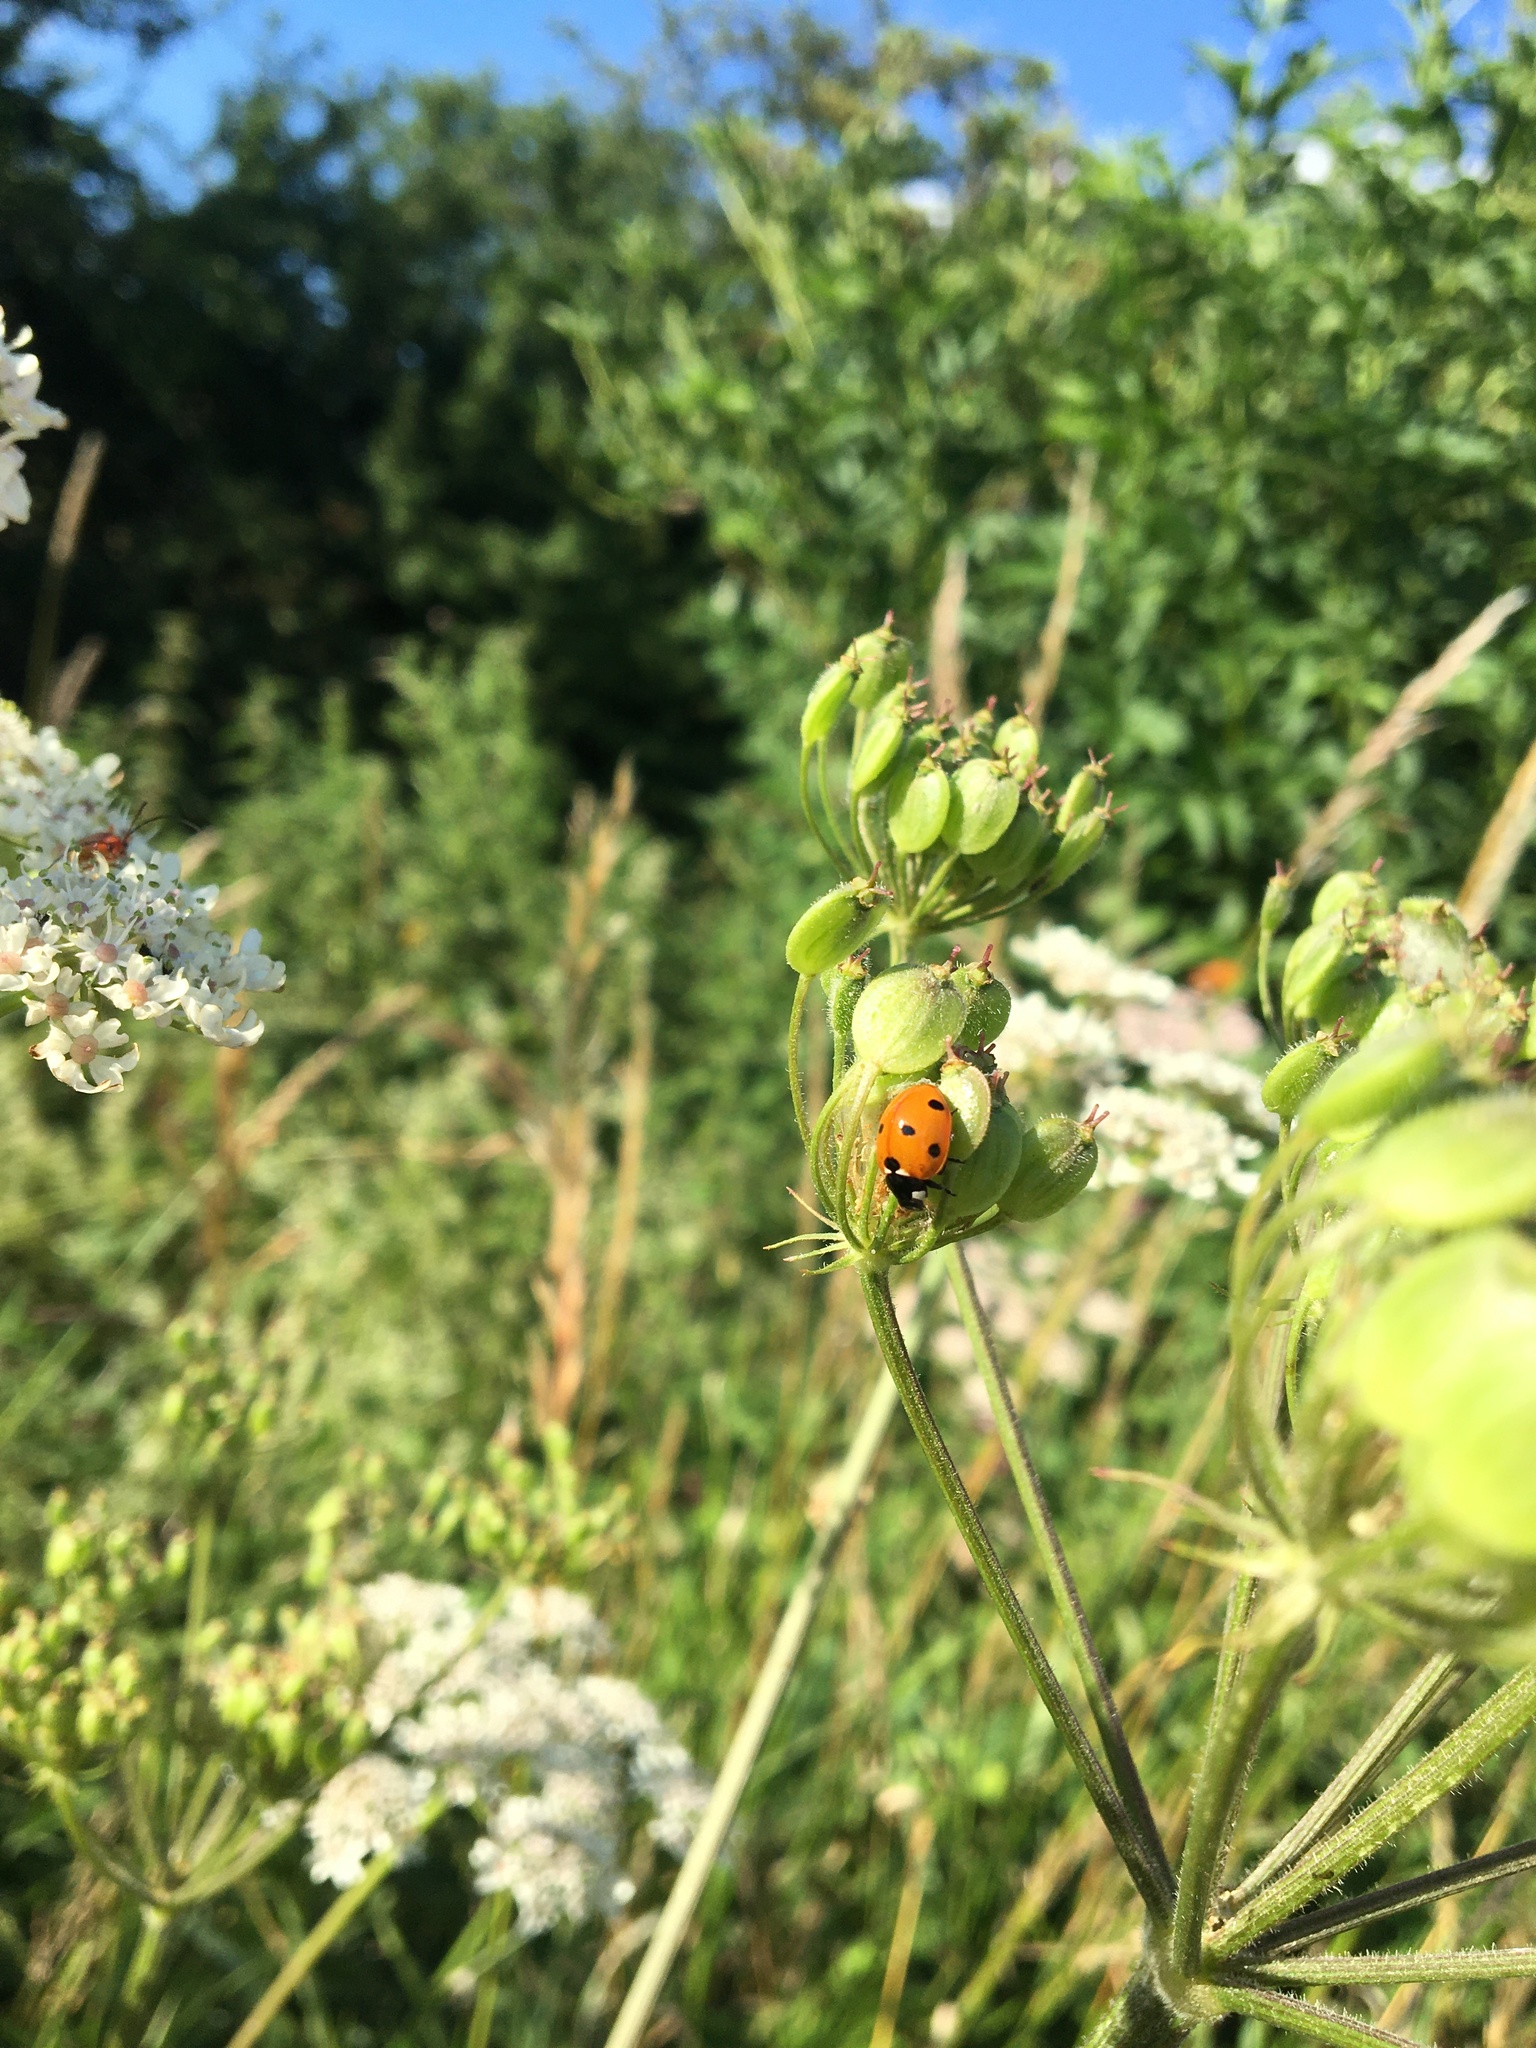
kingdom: Animalia
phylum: Arthropoda
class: Insecta
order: Coleoptera
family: Coccinellidae
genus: Coccinella
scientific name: Coccinella septempunctata
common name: Sevenspotted lady beetle
